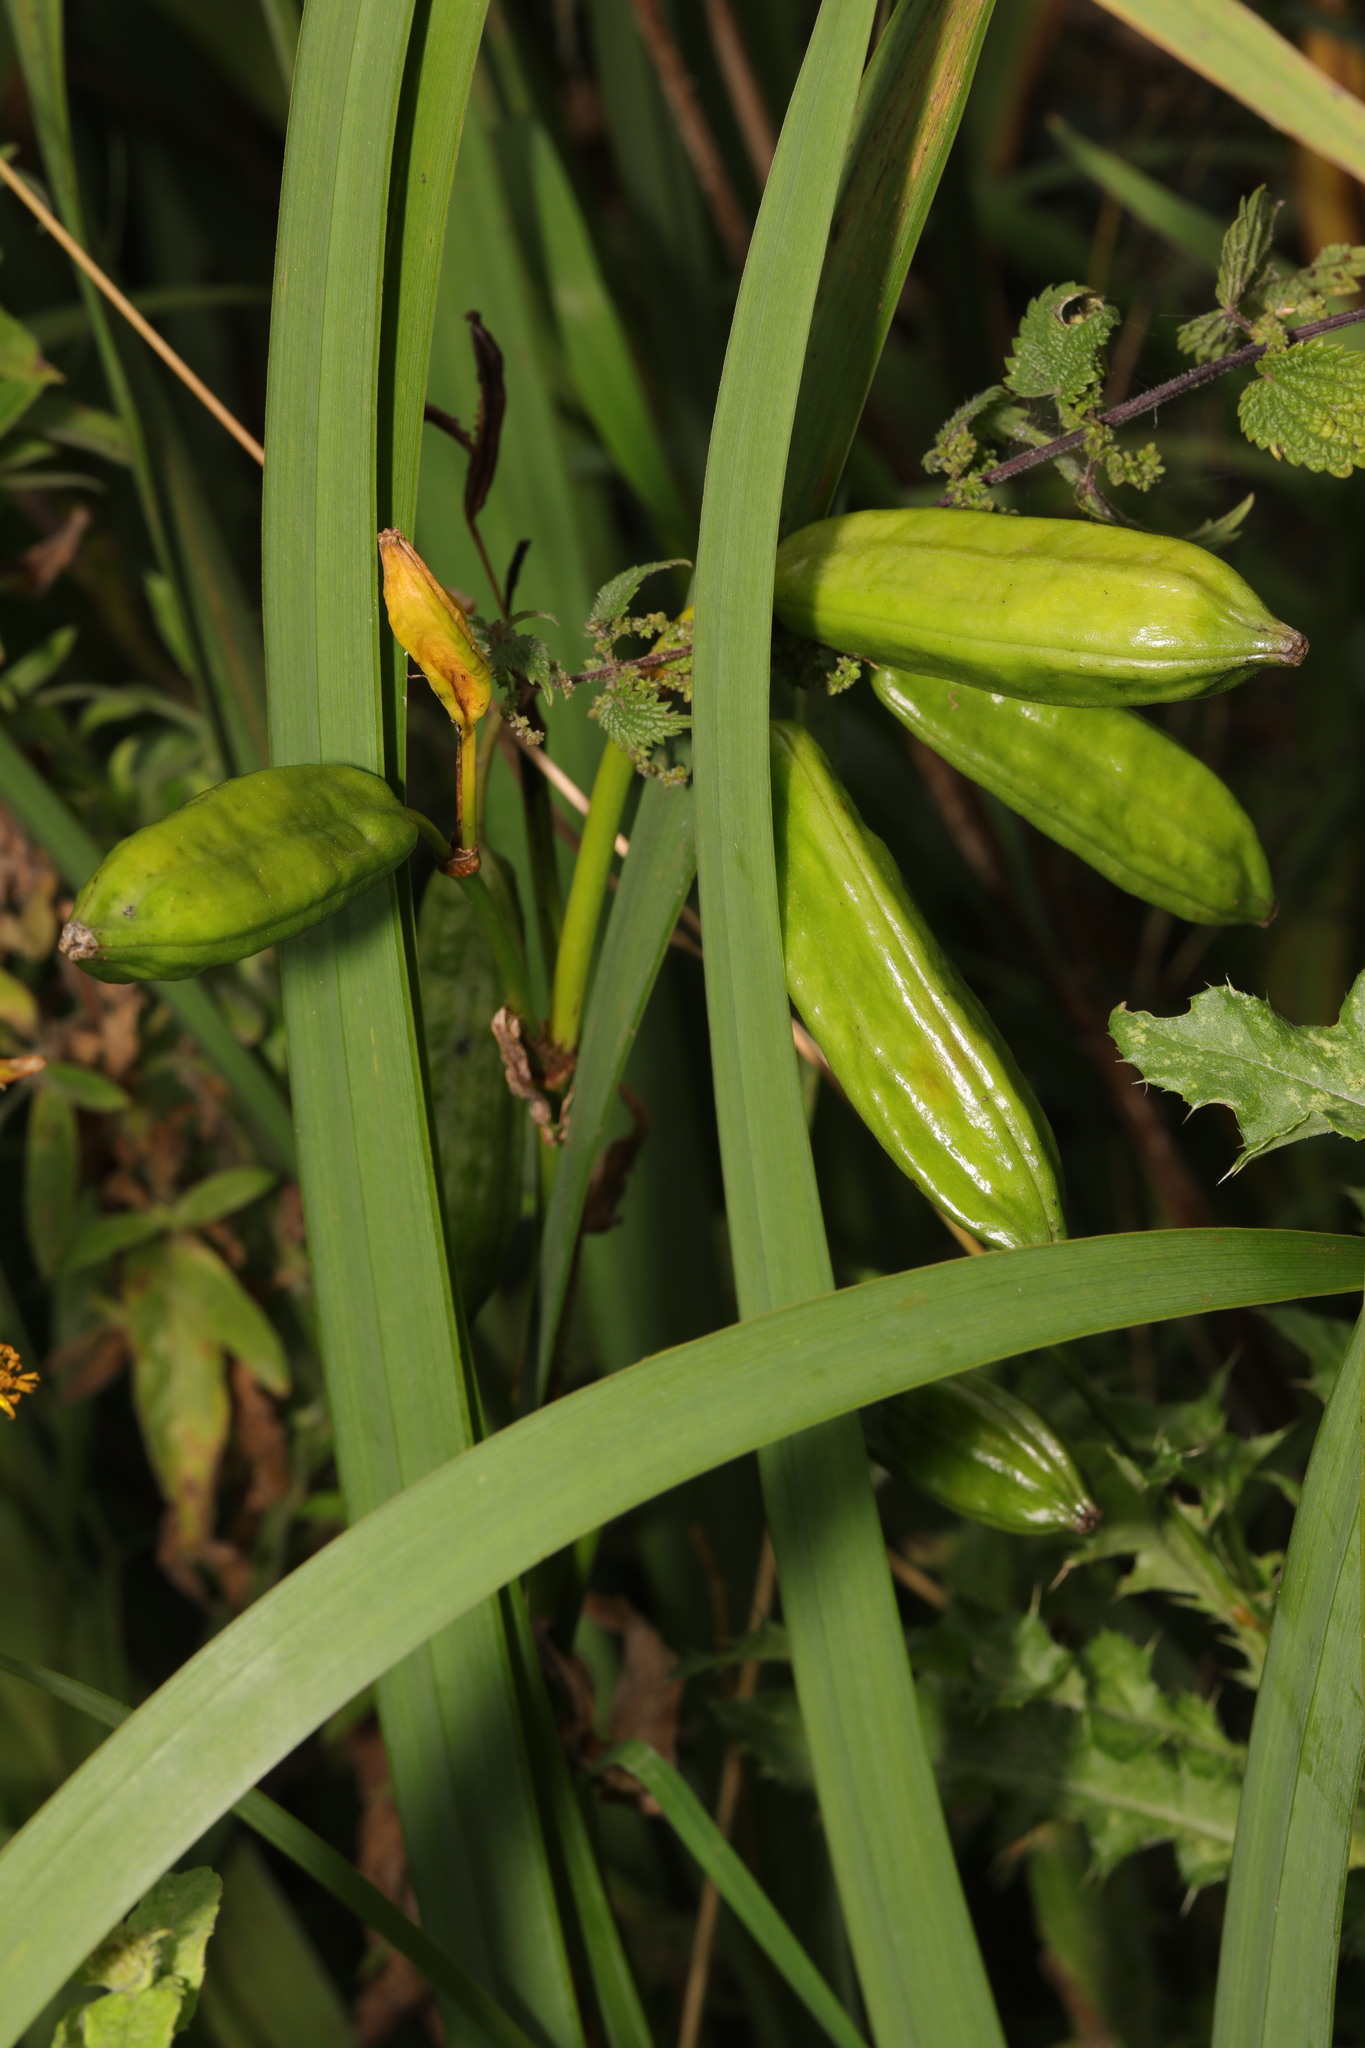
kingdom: Plantae
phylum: Tracheophyta
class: Liliopsida
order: Asparagales
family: Iridaceae
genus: Iris
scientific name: Iris pseudacorus
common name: Yellow flag
